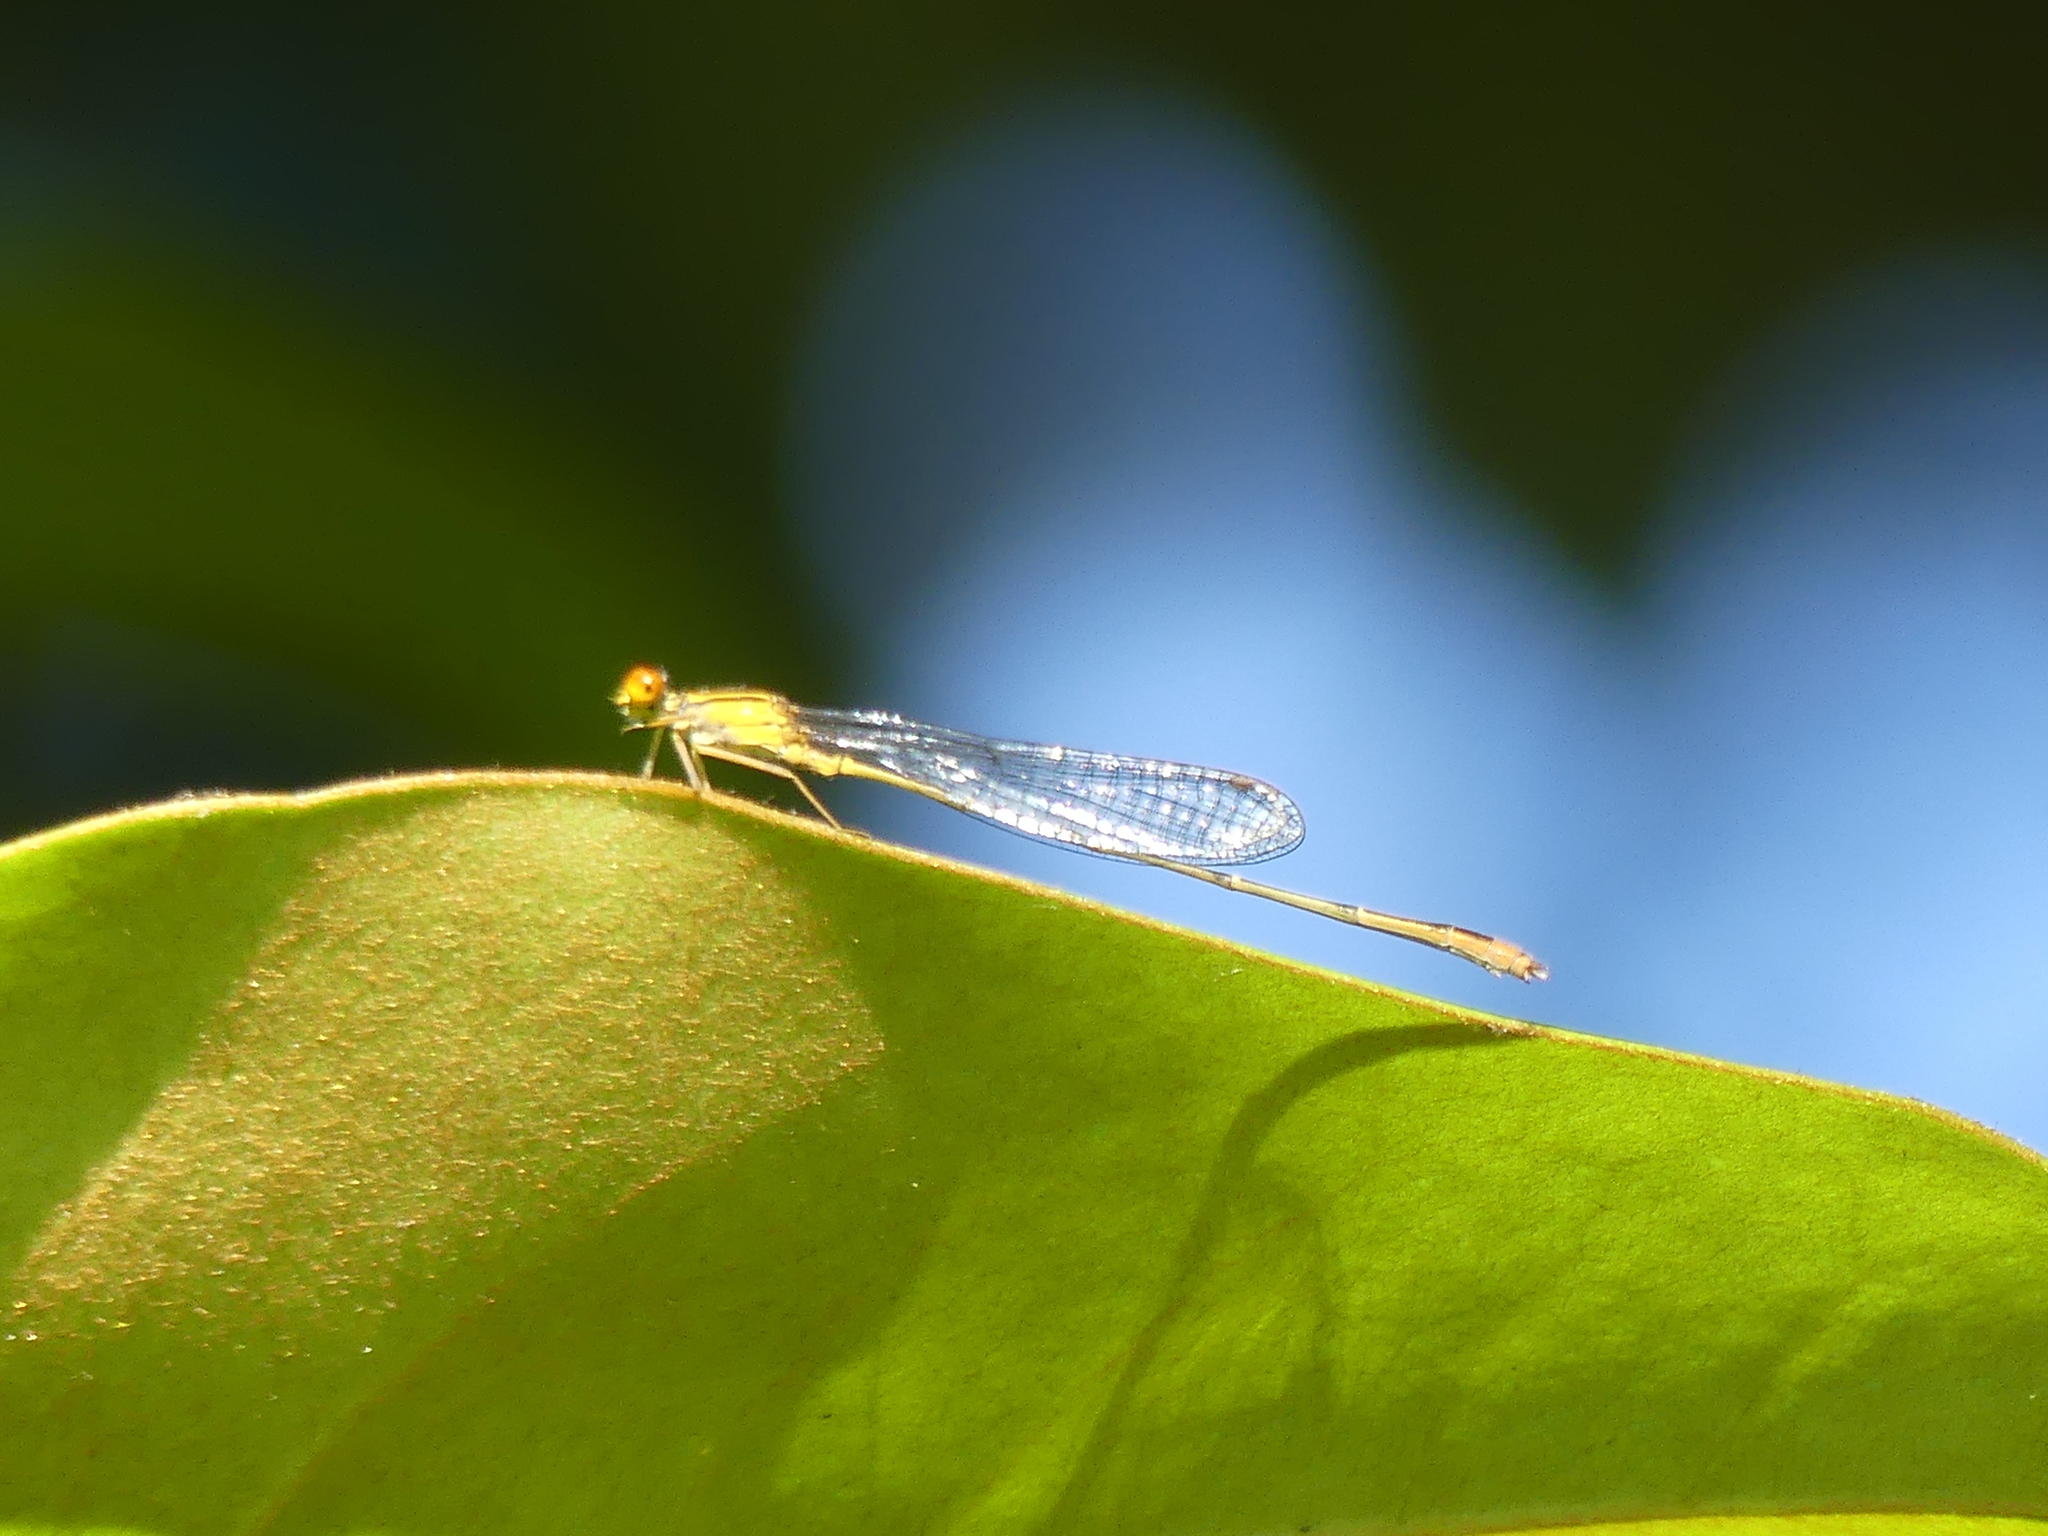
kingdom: Animalia
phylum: Arthropoda
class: Insecta
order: Odonata
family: Coenagrionidae
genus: Enallagma
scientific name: Enallagma signatum
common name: Orange bluet
